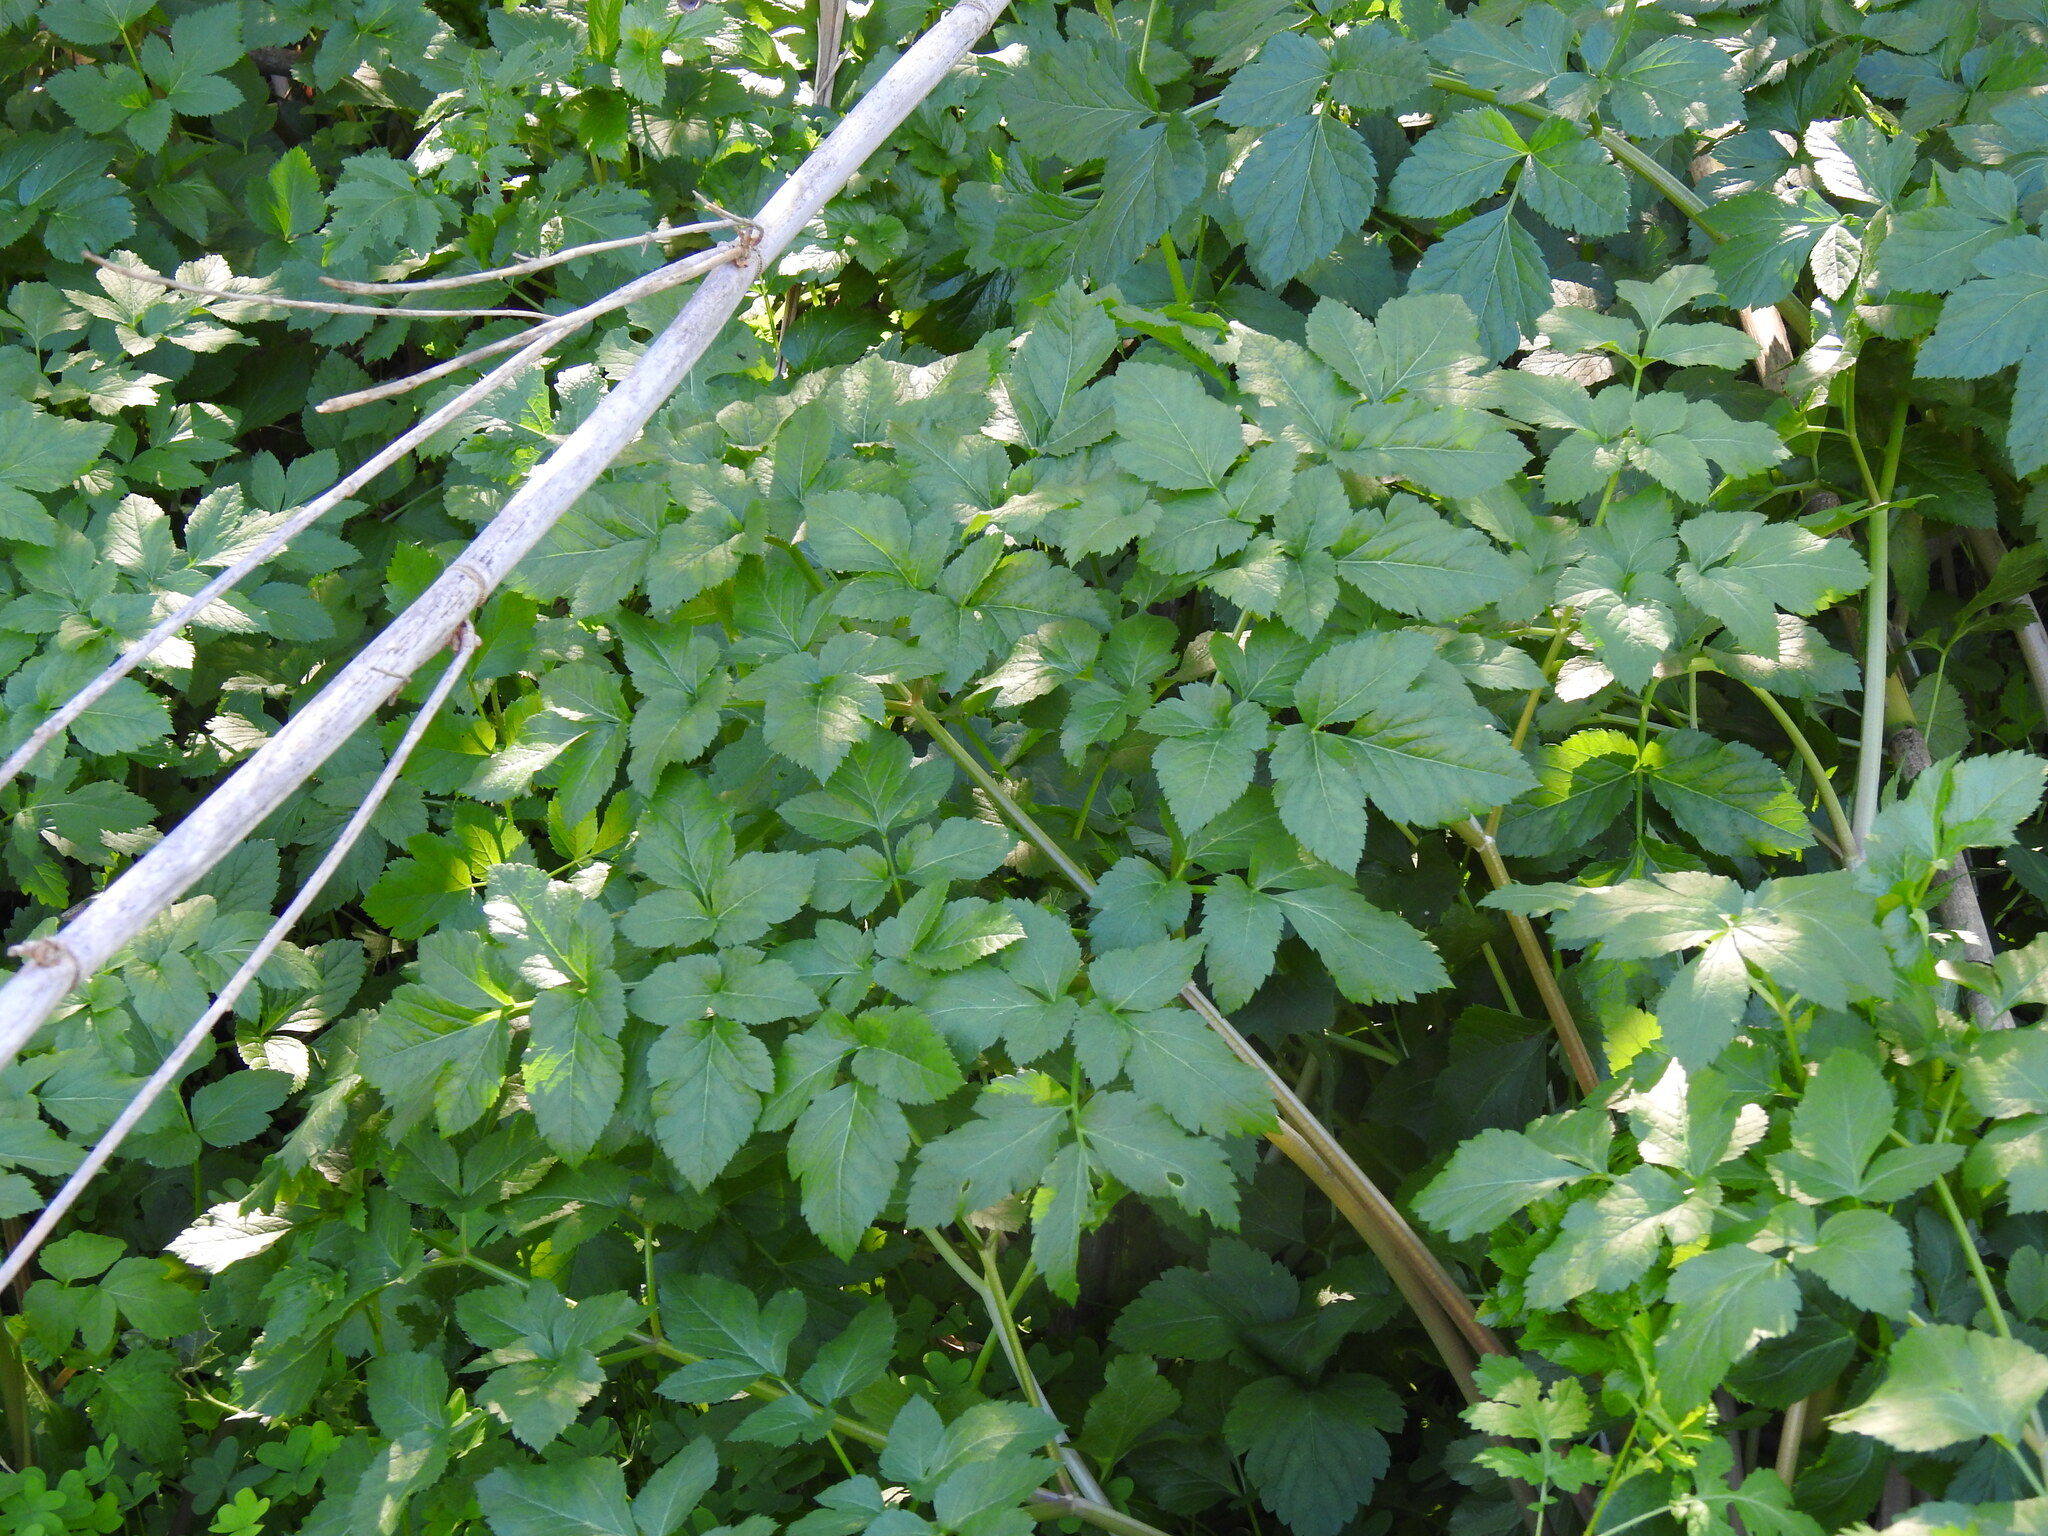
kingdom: Plantae
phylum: Tracheophyta
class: Magnoliopsida
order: Apiales
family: Apiaceae
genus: Smyrnium
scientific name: Smyrnium olusatrum
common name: Alexanders
